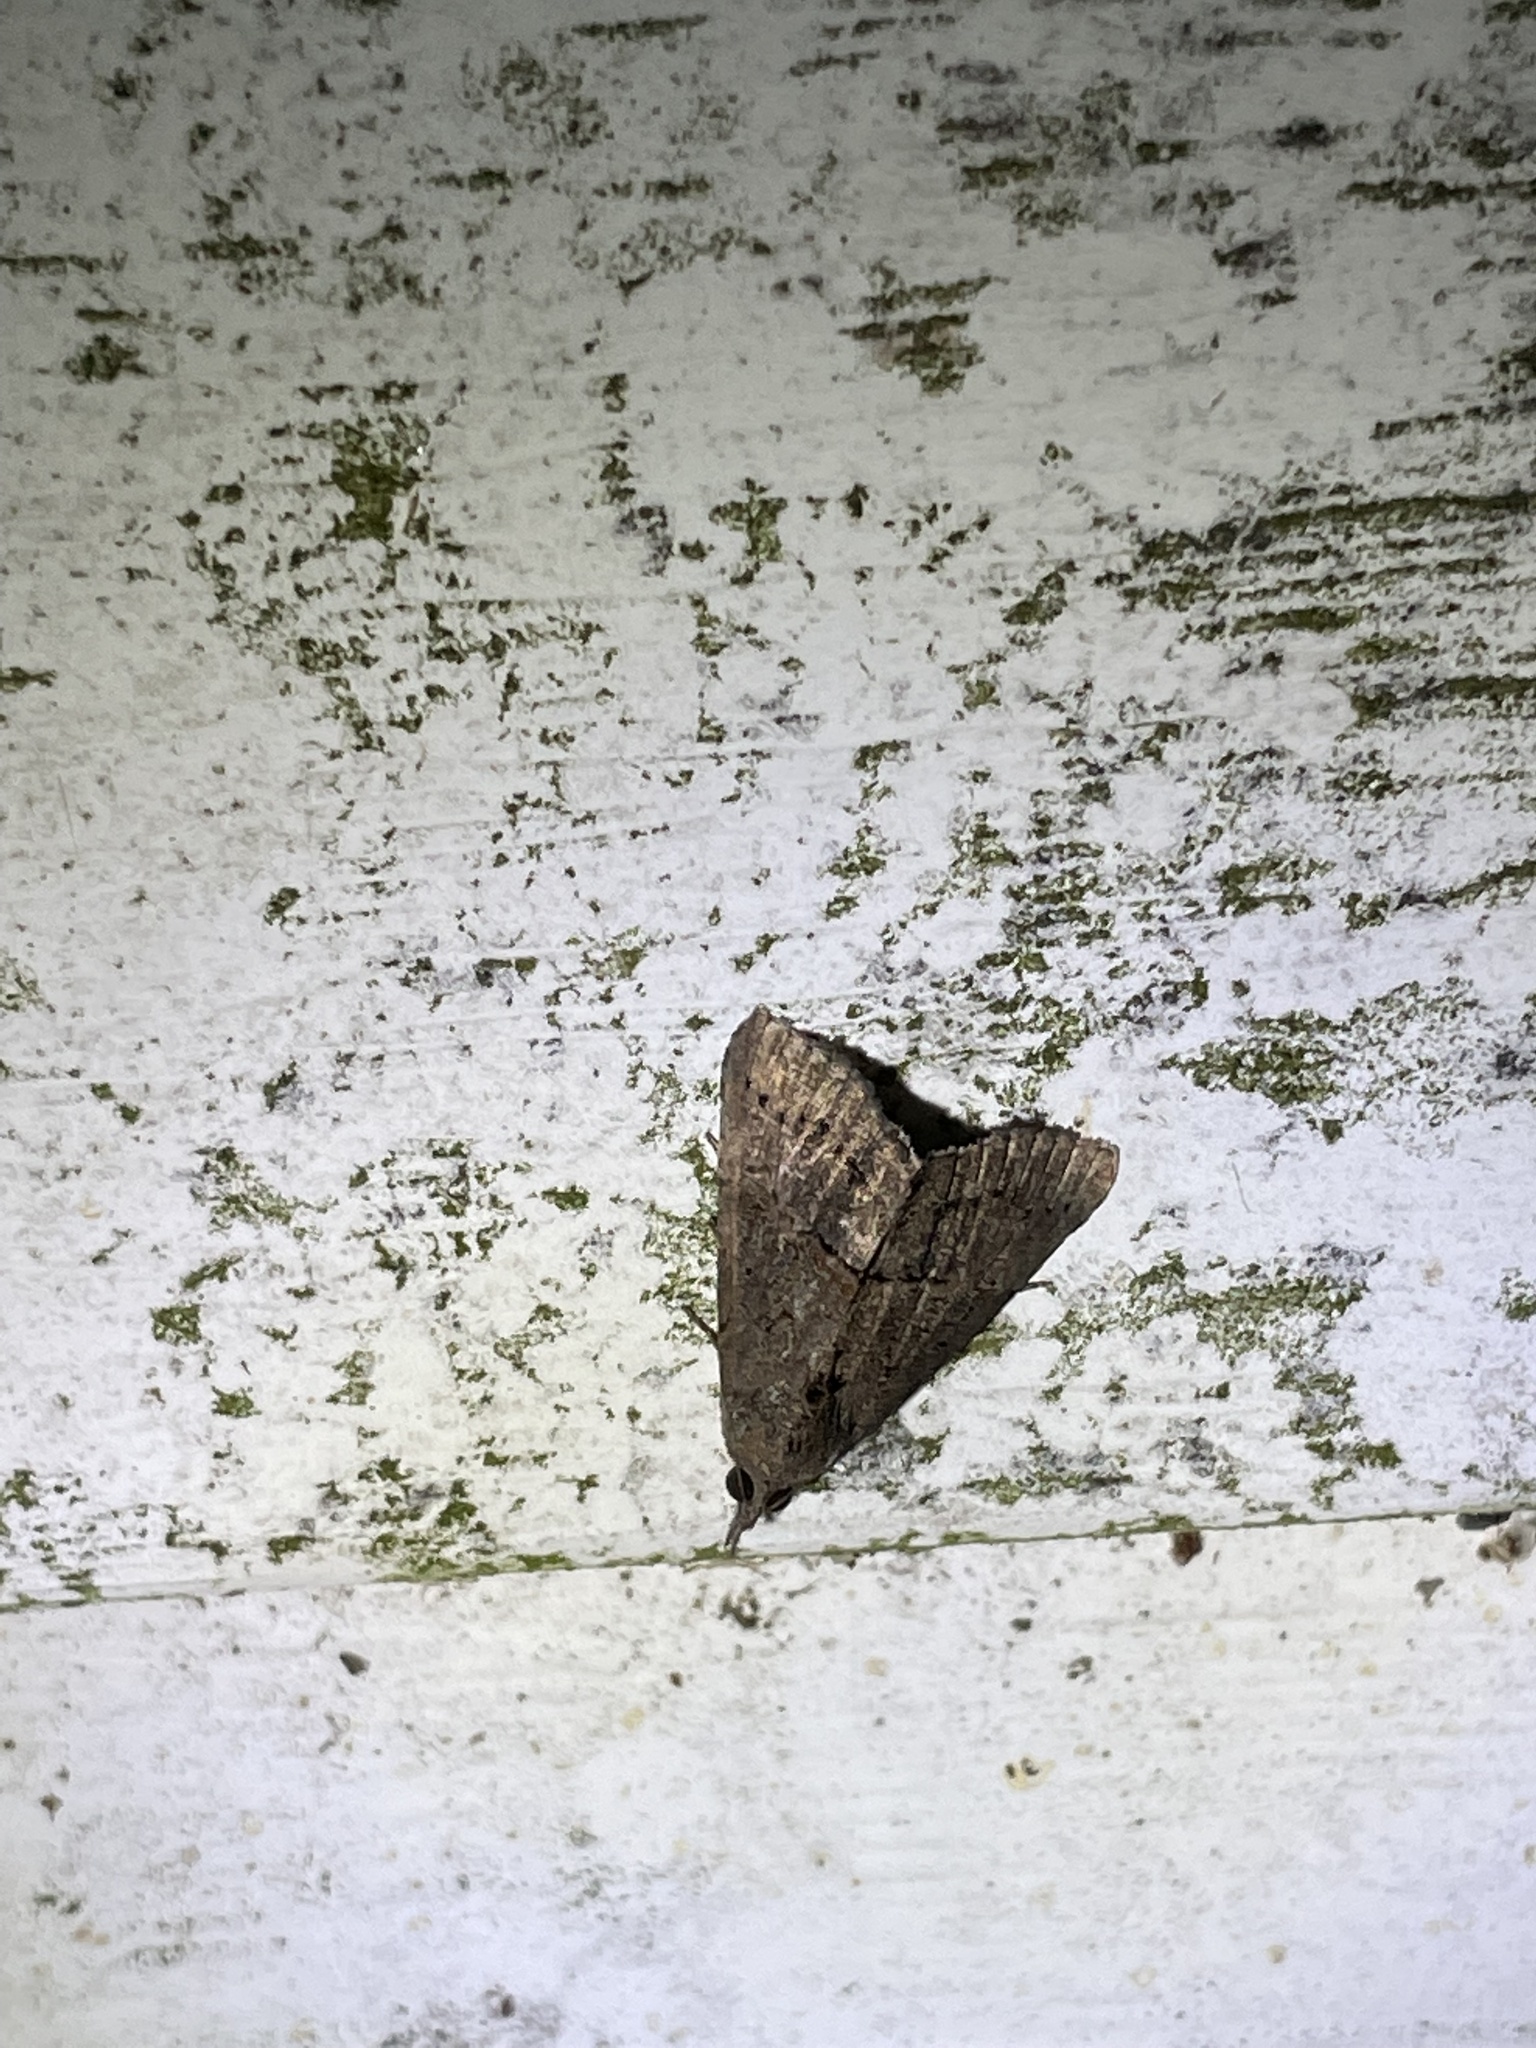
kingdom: Animalia
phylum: Arthropoda
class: Insecta
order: Lepidoptera
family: Erebidae
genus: Hypena
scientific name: Hypena scabra
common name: Green cloverworm
